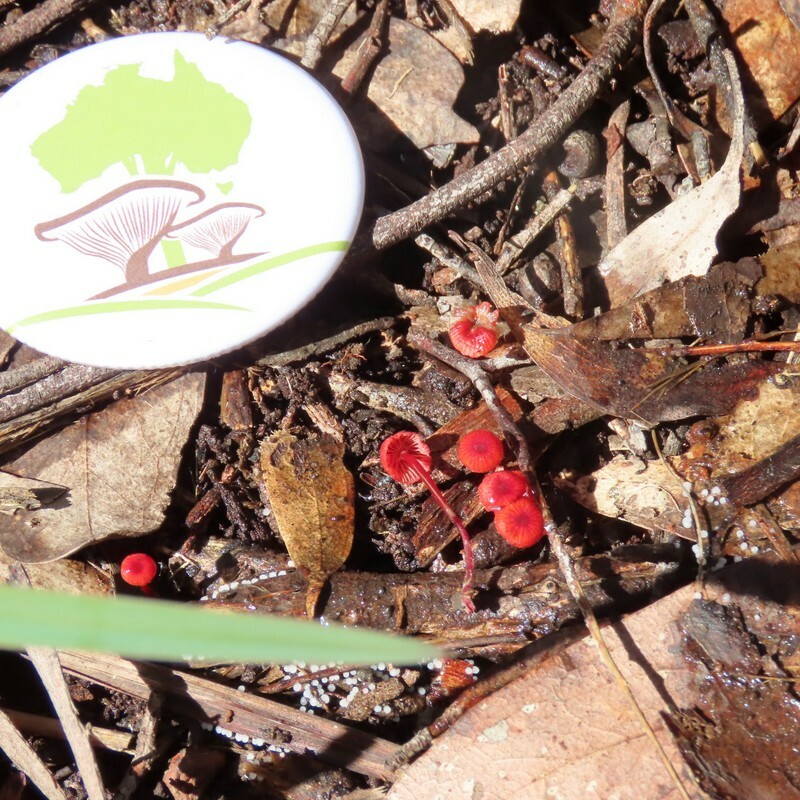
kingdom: Fungi
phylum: Basidiomycota
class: Agaricomycetes
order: Agaricales
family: Mycenaceae
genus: Cruentomycena
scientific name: Cruentomycena viscidocruenta
